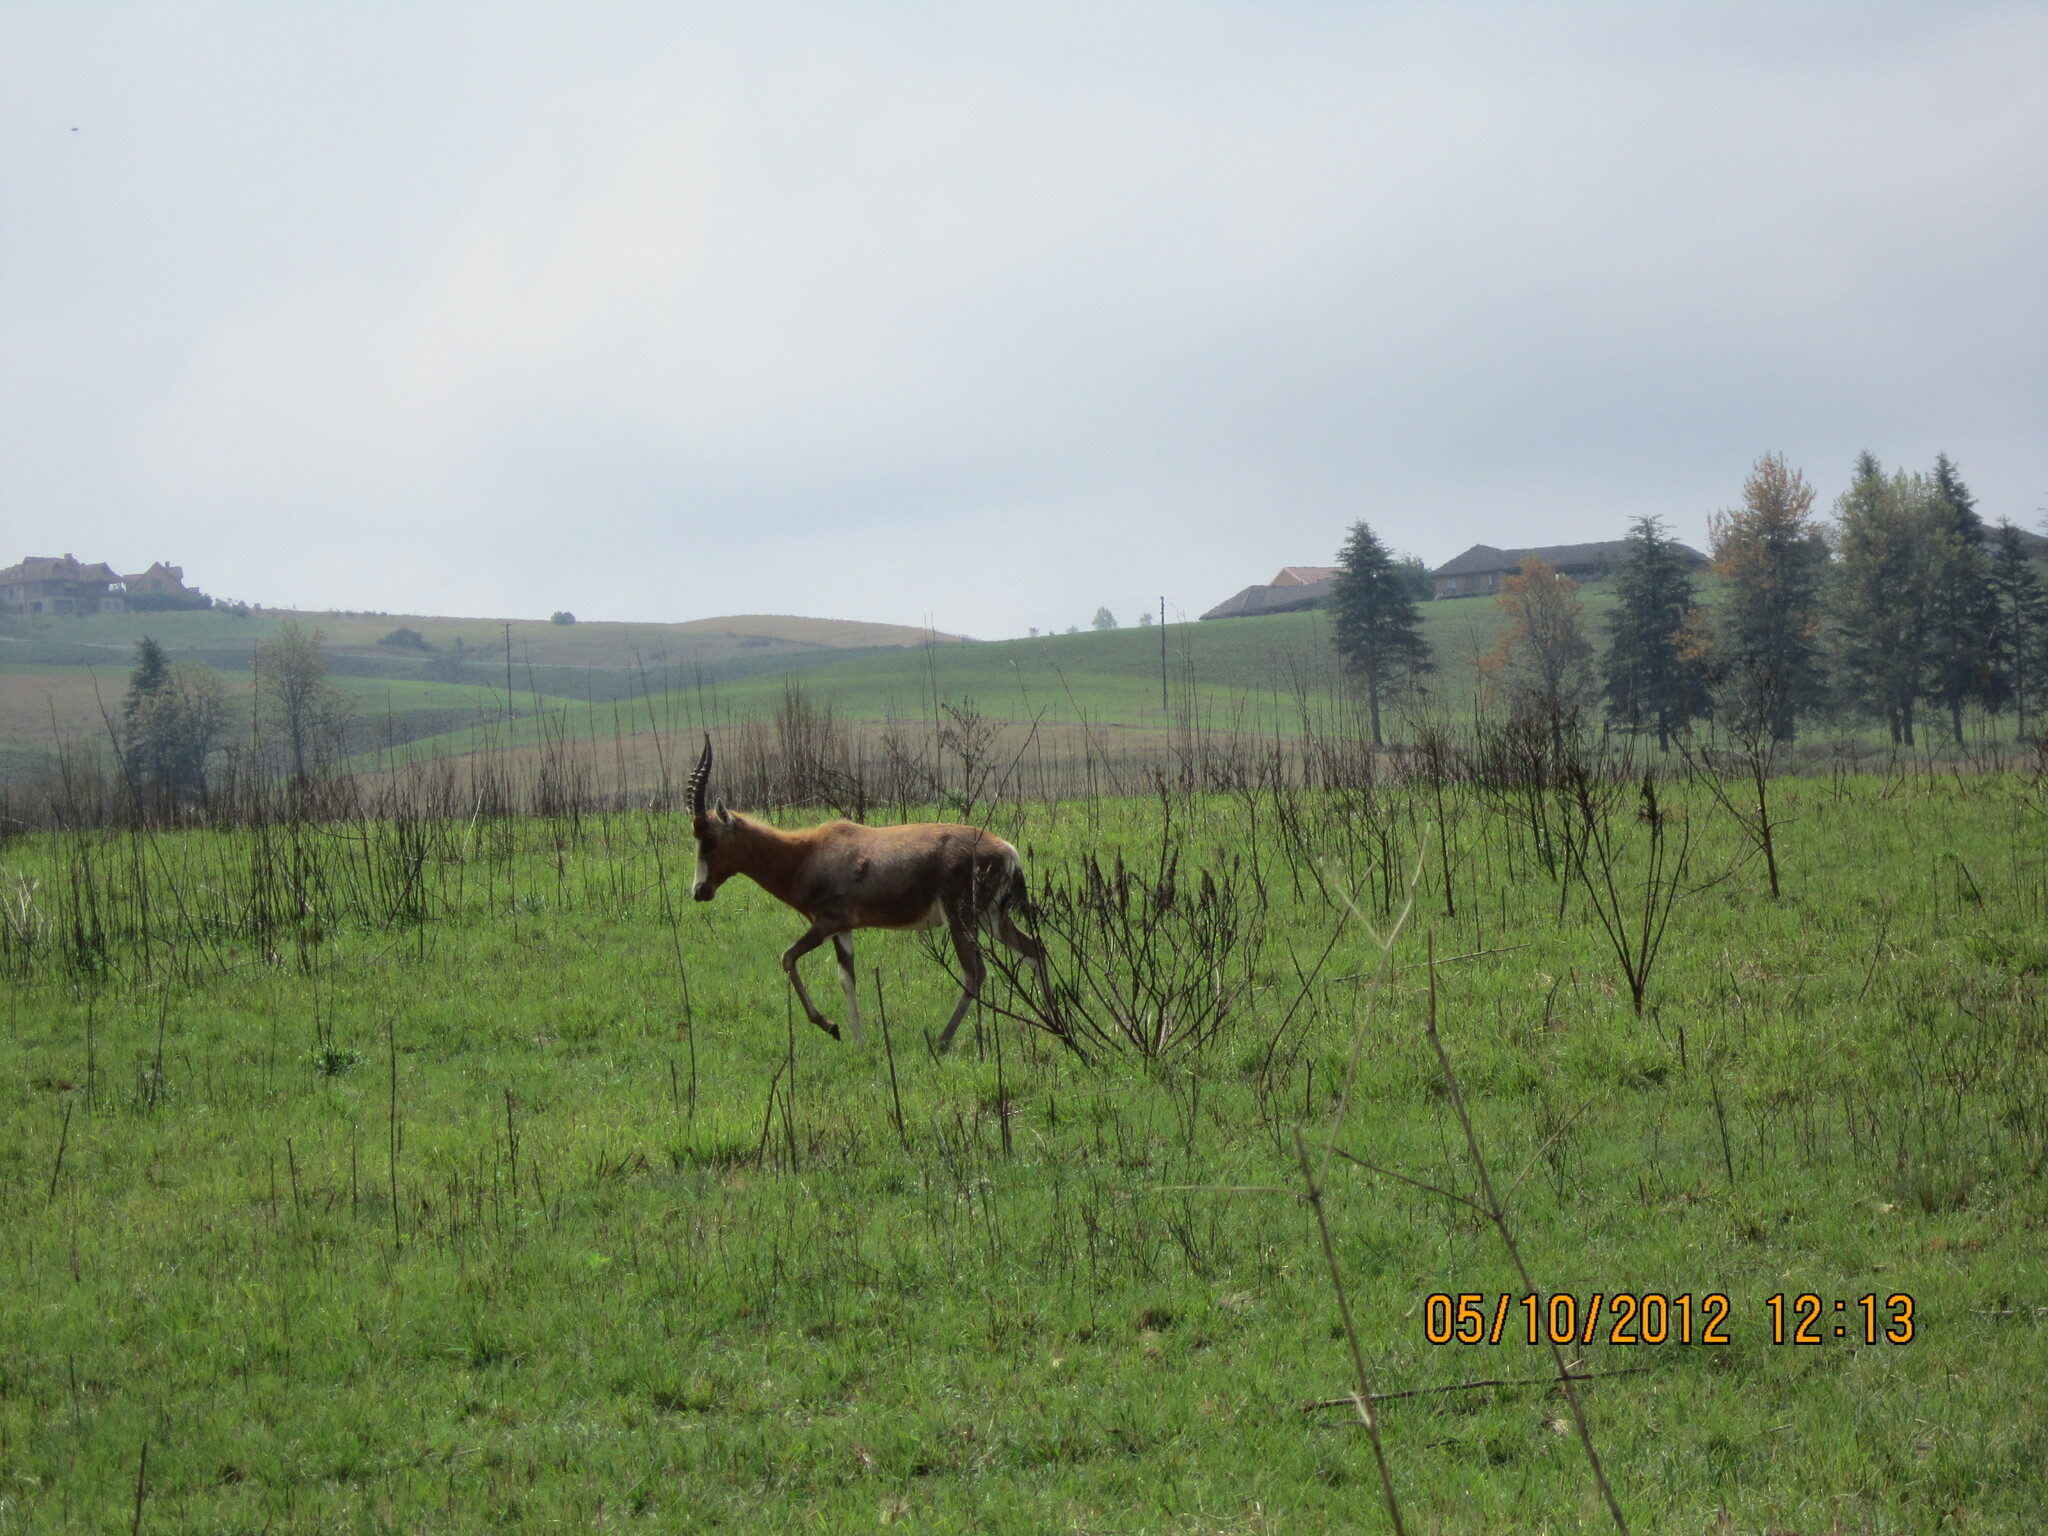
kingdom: Animalia
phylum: Chordata
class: Mammalia
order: Artiodactyla
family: Bovidae
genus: Damaliscus
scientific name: Damaliscus pygargus
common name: Bontebok
